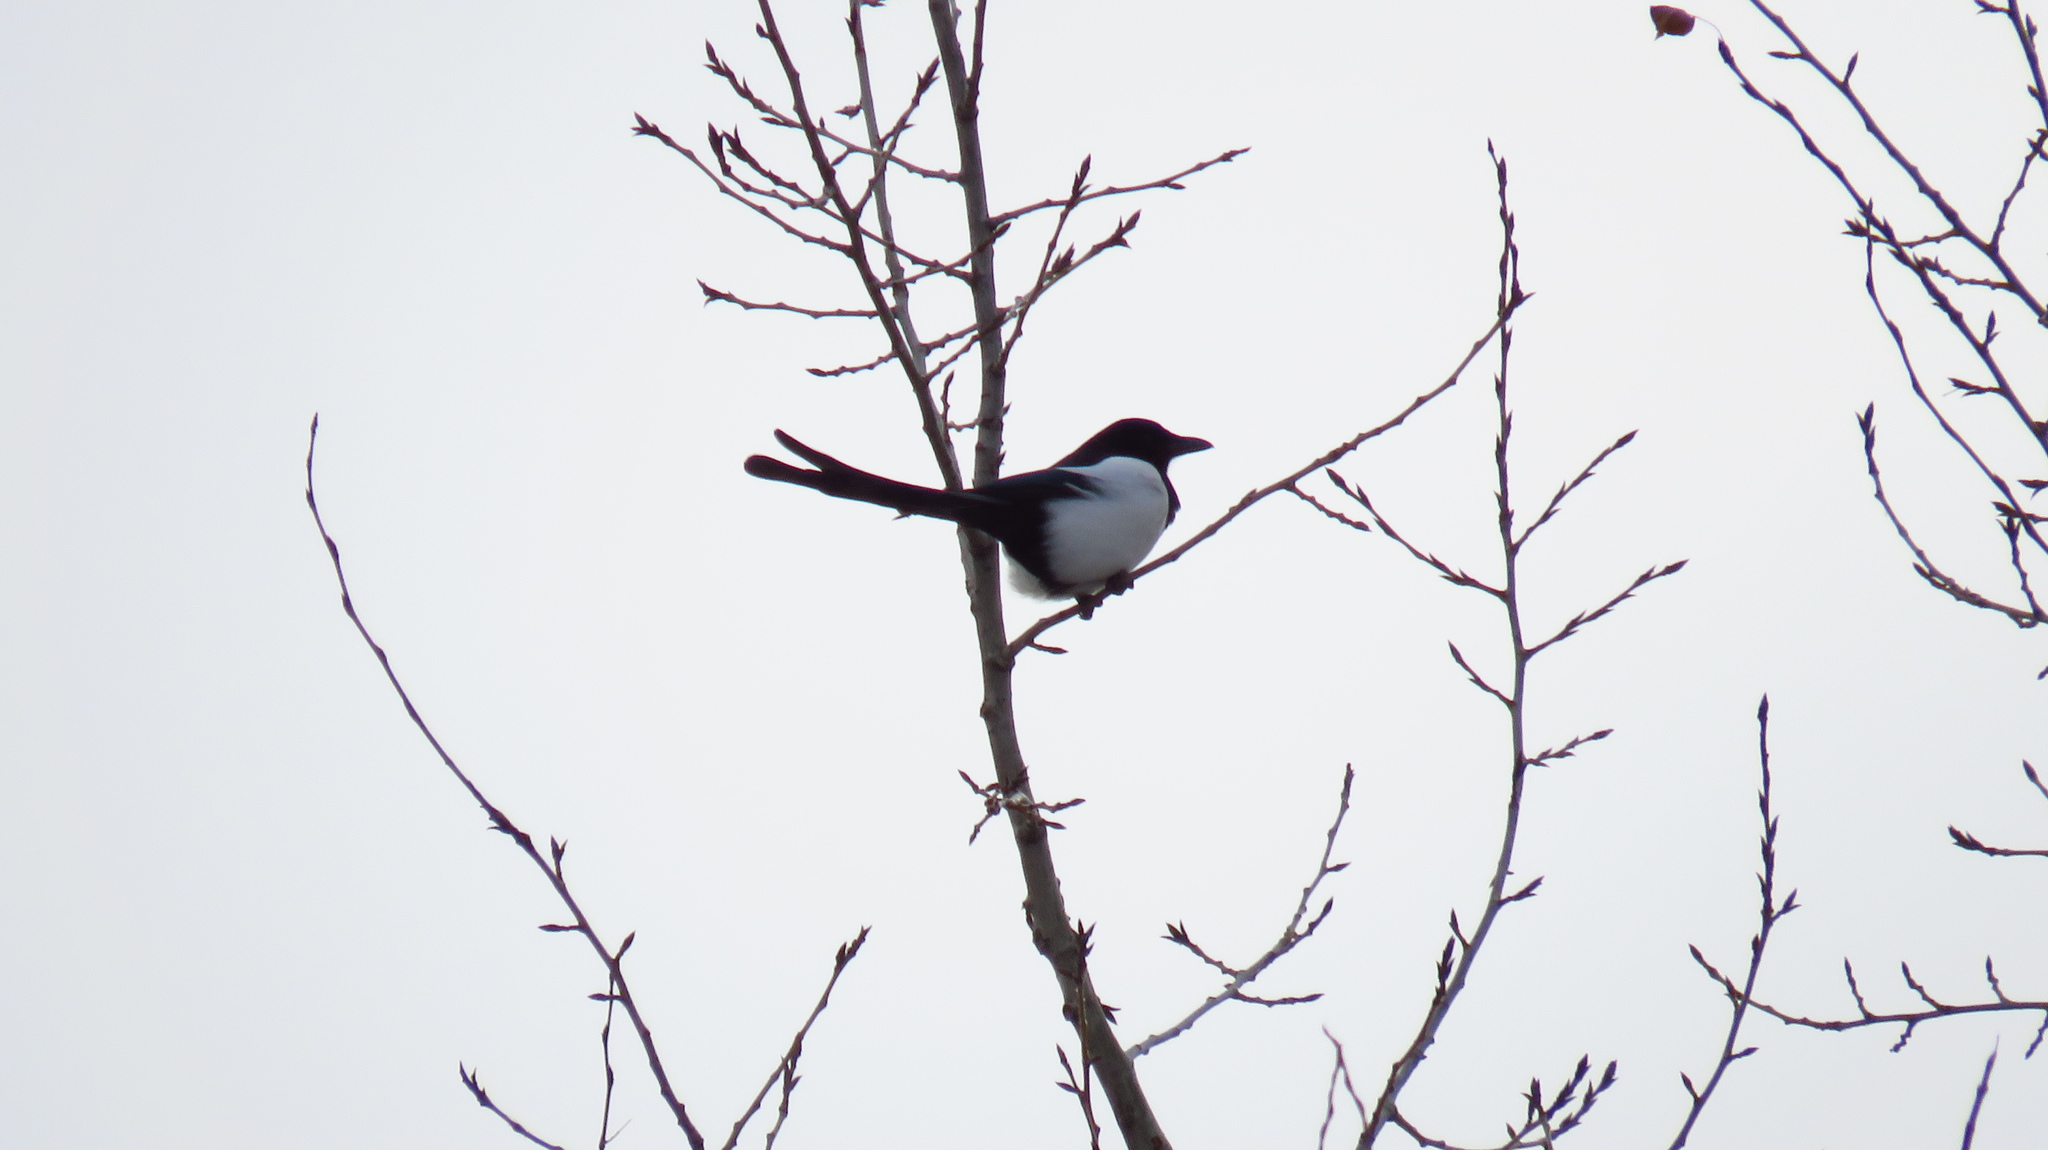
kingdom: Animalia
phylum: Chordata
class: Aves
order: Passeriformes
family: Corvidae
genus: Pica
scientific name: Pica pica
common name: Eurasian magpie
